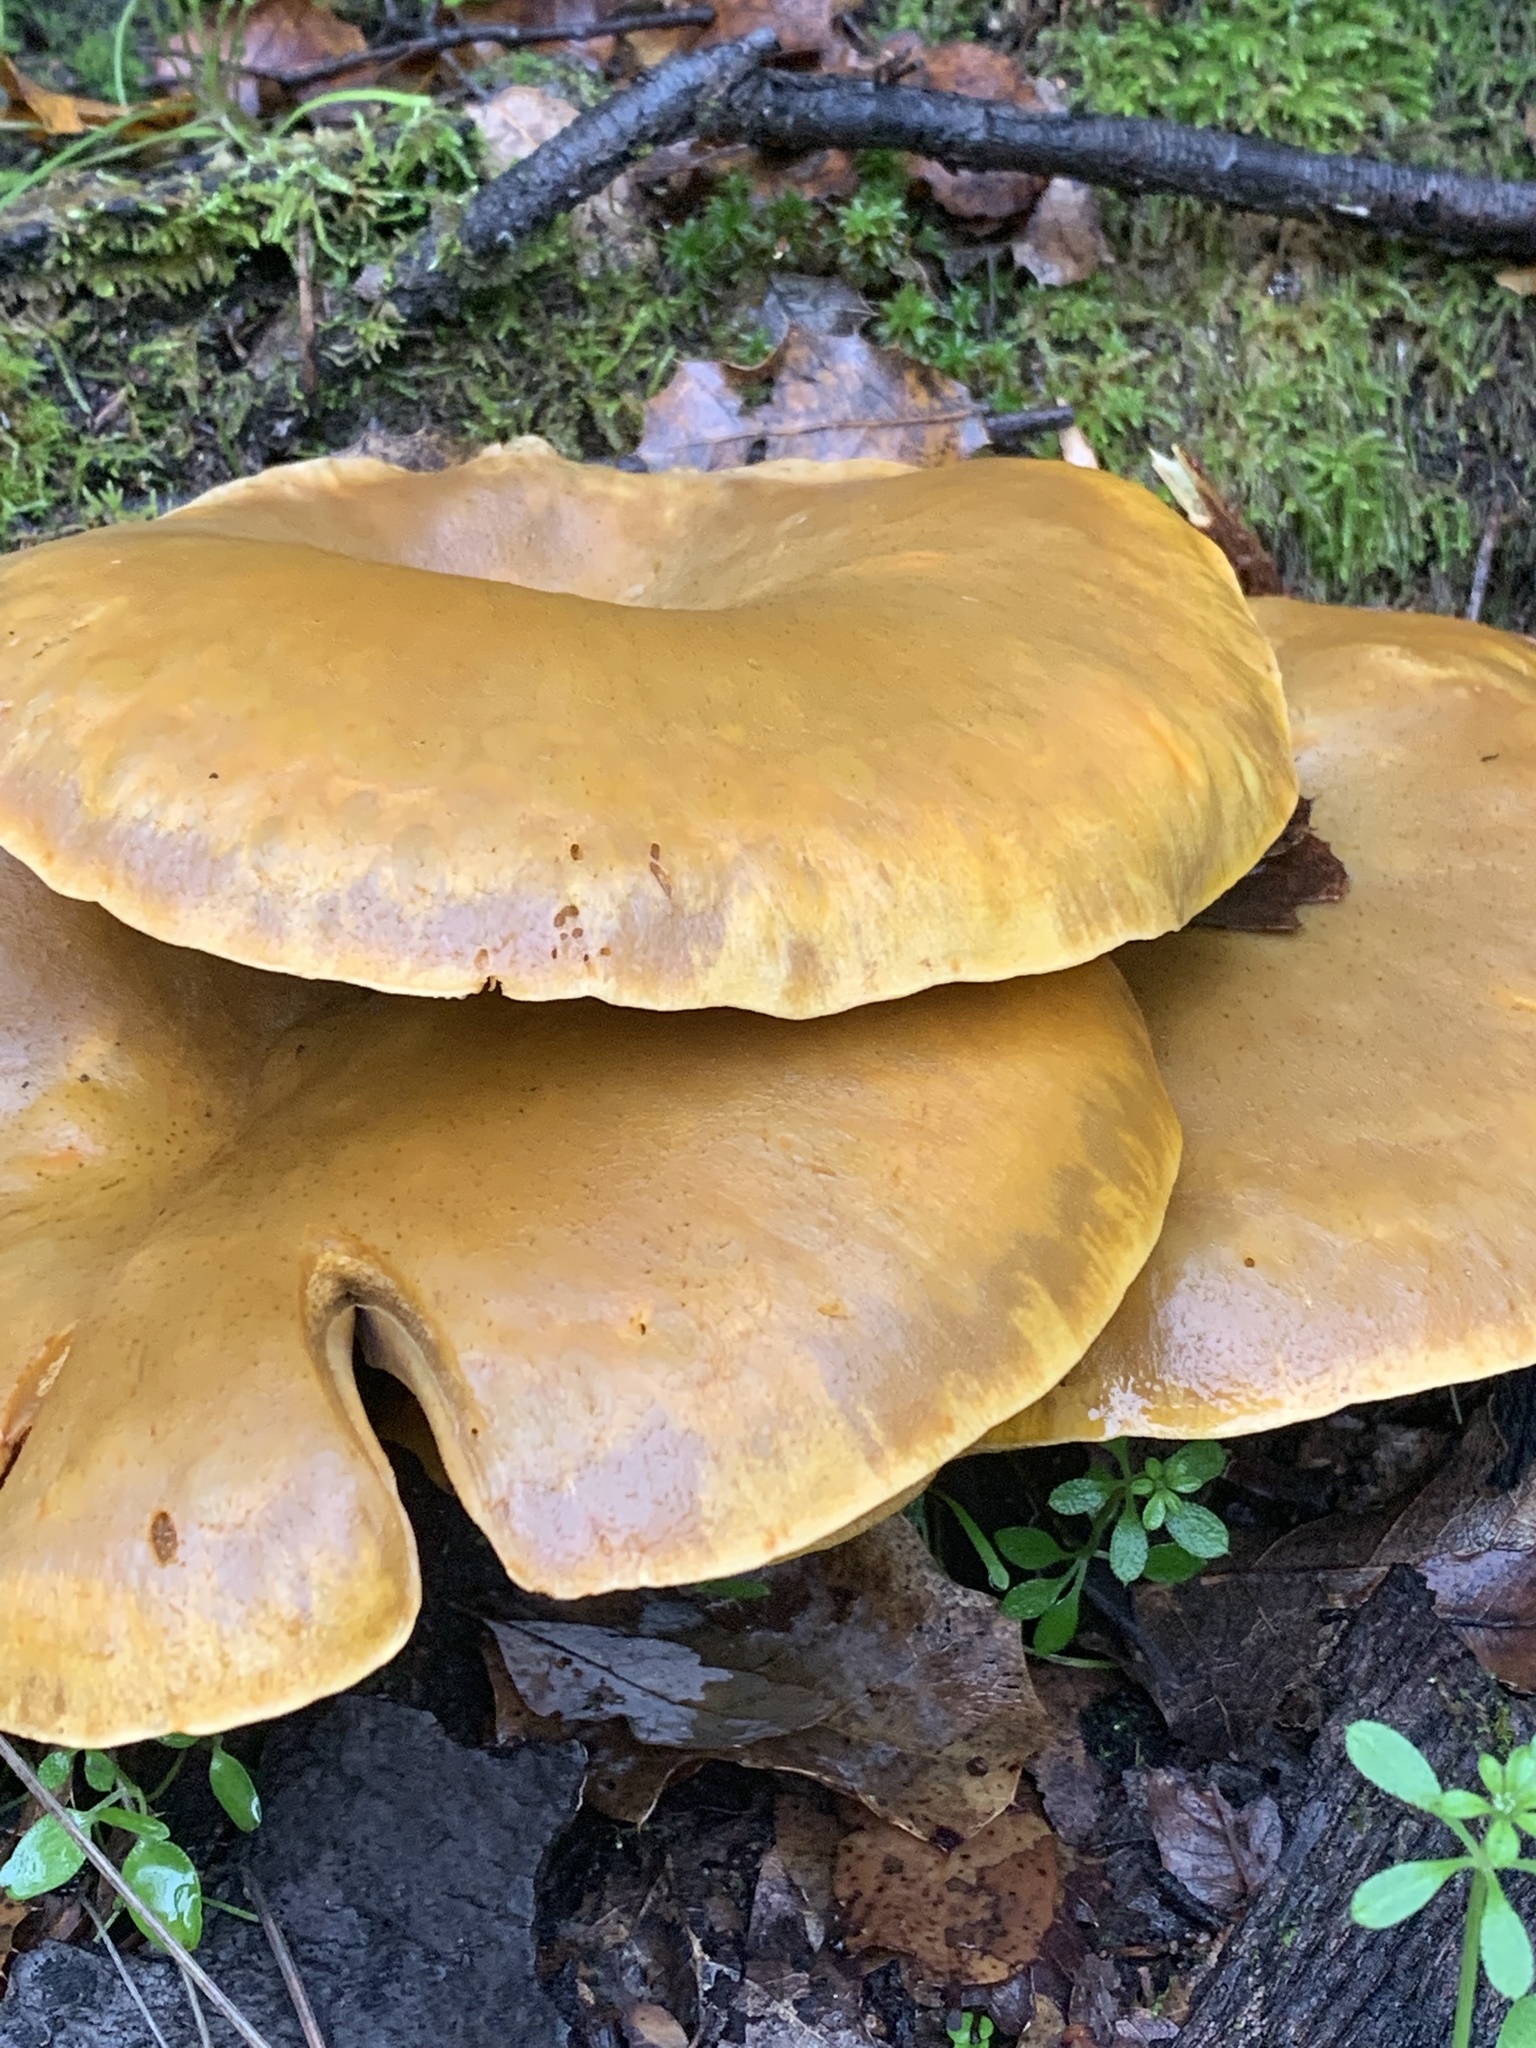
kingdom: Fungi
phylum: Basidiomycota
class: Agaricomycetes
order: Agaricales
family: Omphalotaceae
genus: Omphalotus
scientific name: Omphalotus olivascens
